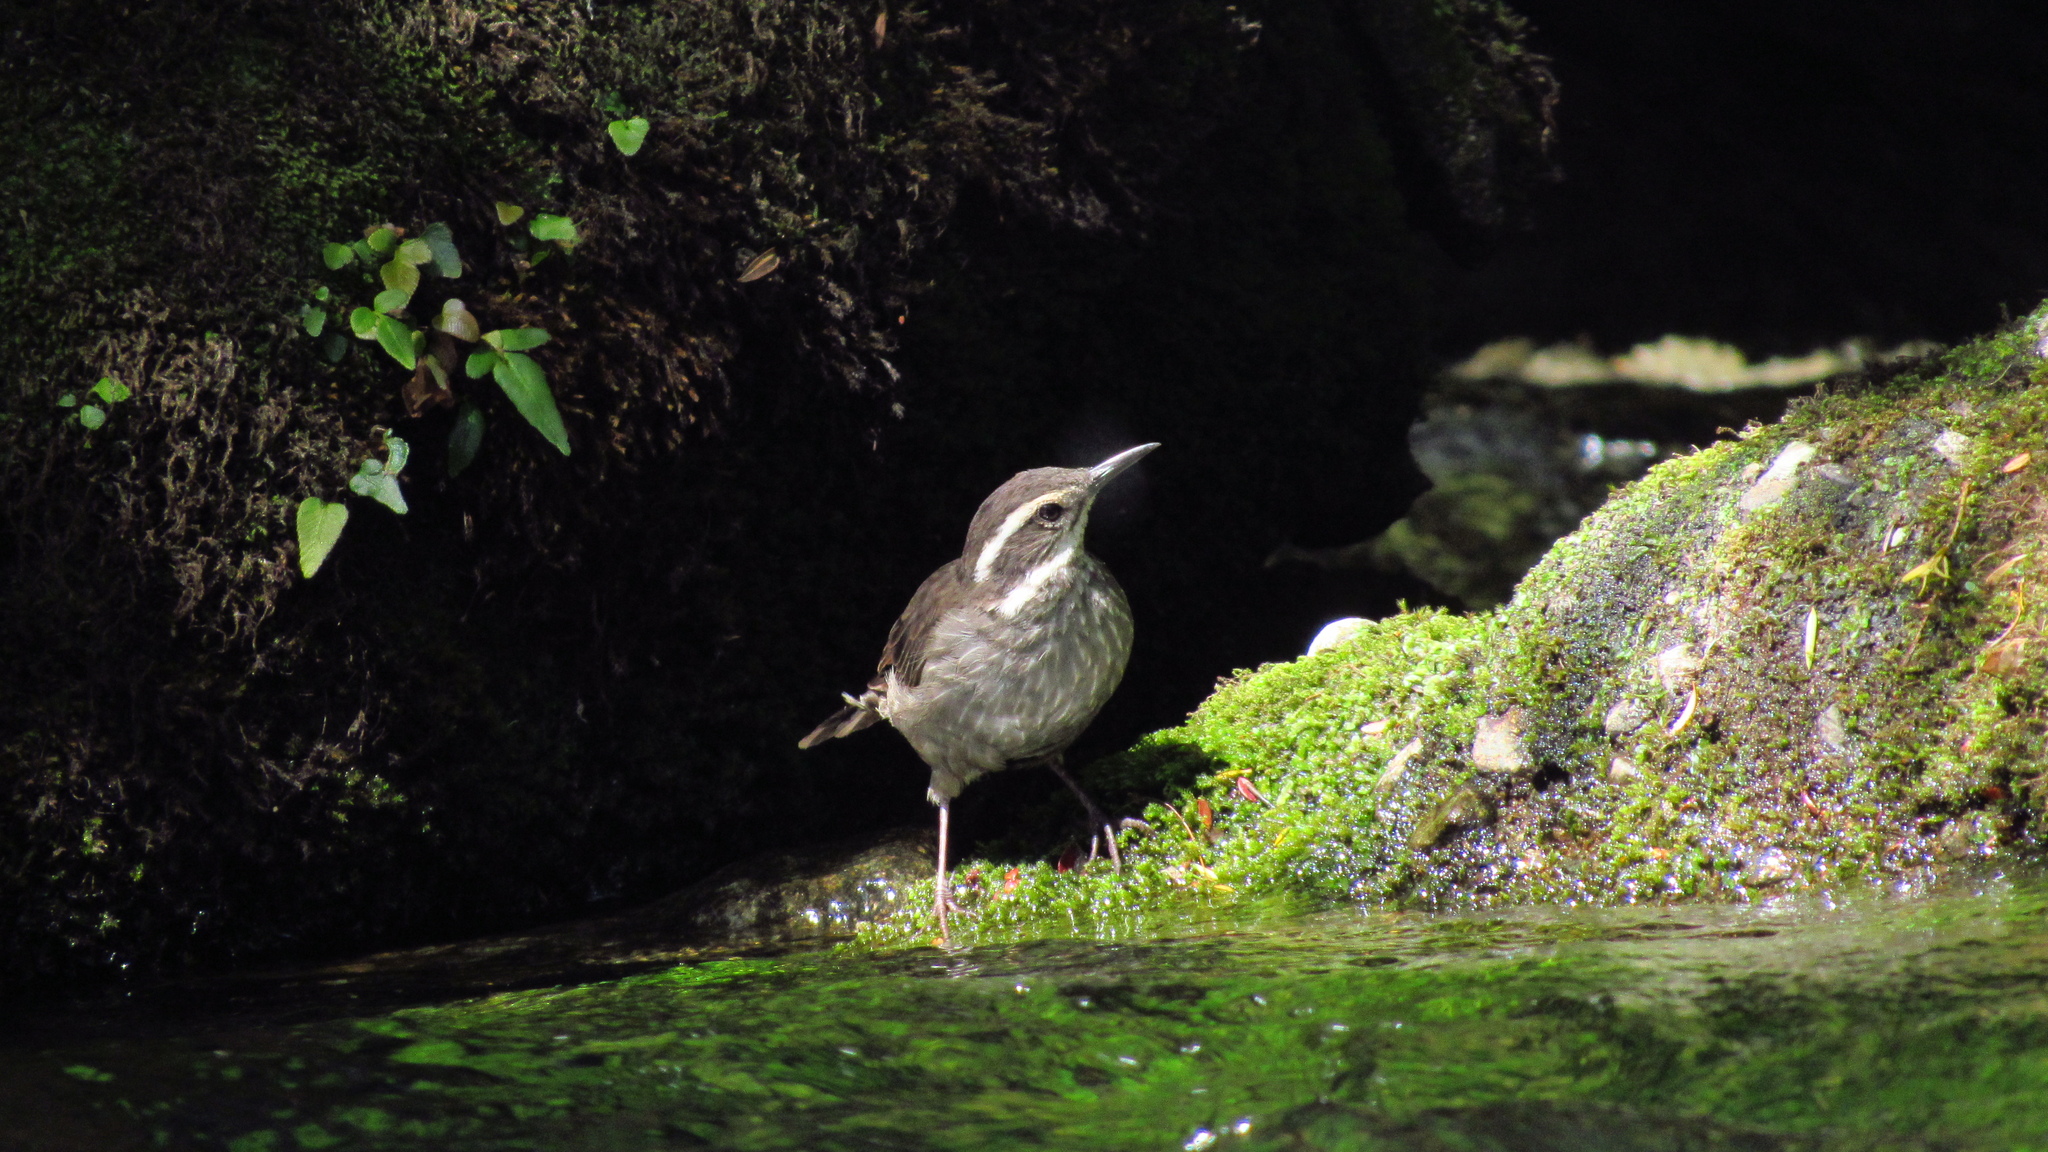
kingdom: Animalia
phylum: Chordata
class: Aves
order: Passeriformes
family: Furnariidae
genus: Cinclodes
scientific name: Cinclodes patagonicus
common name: Dark-bellied cinclodes
